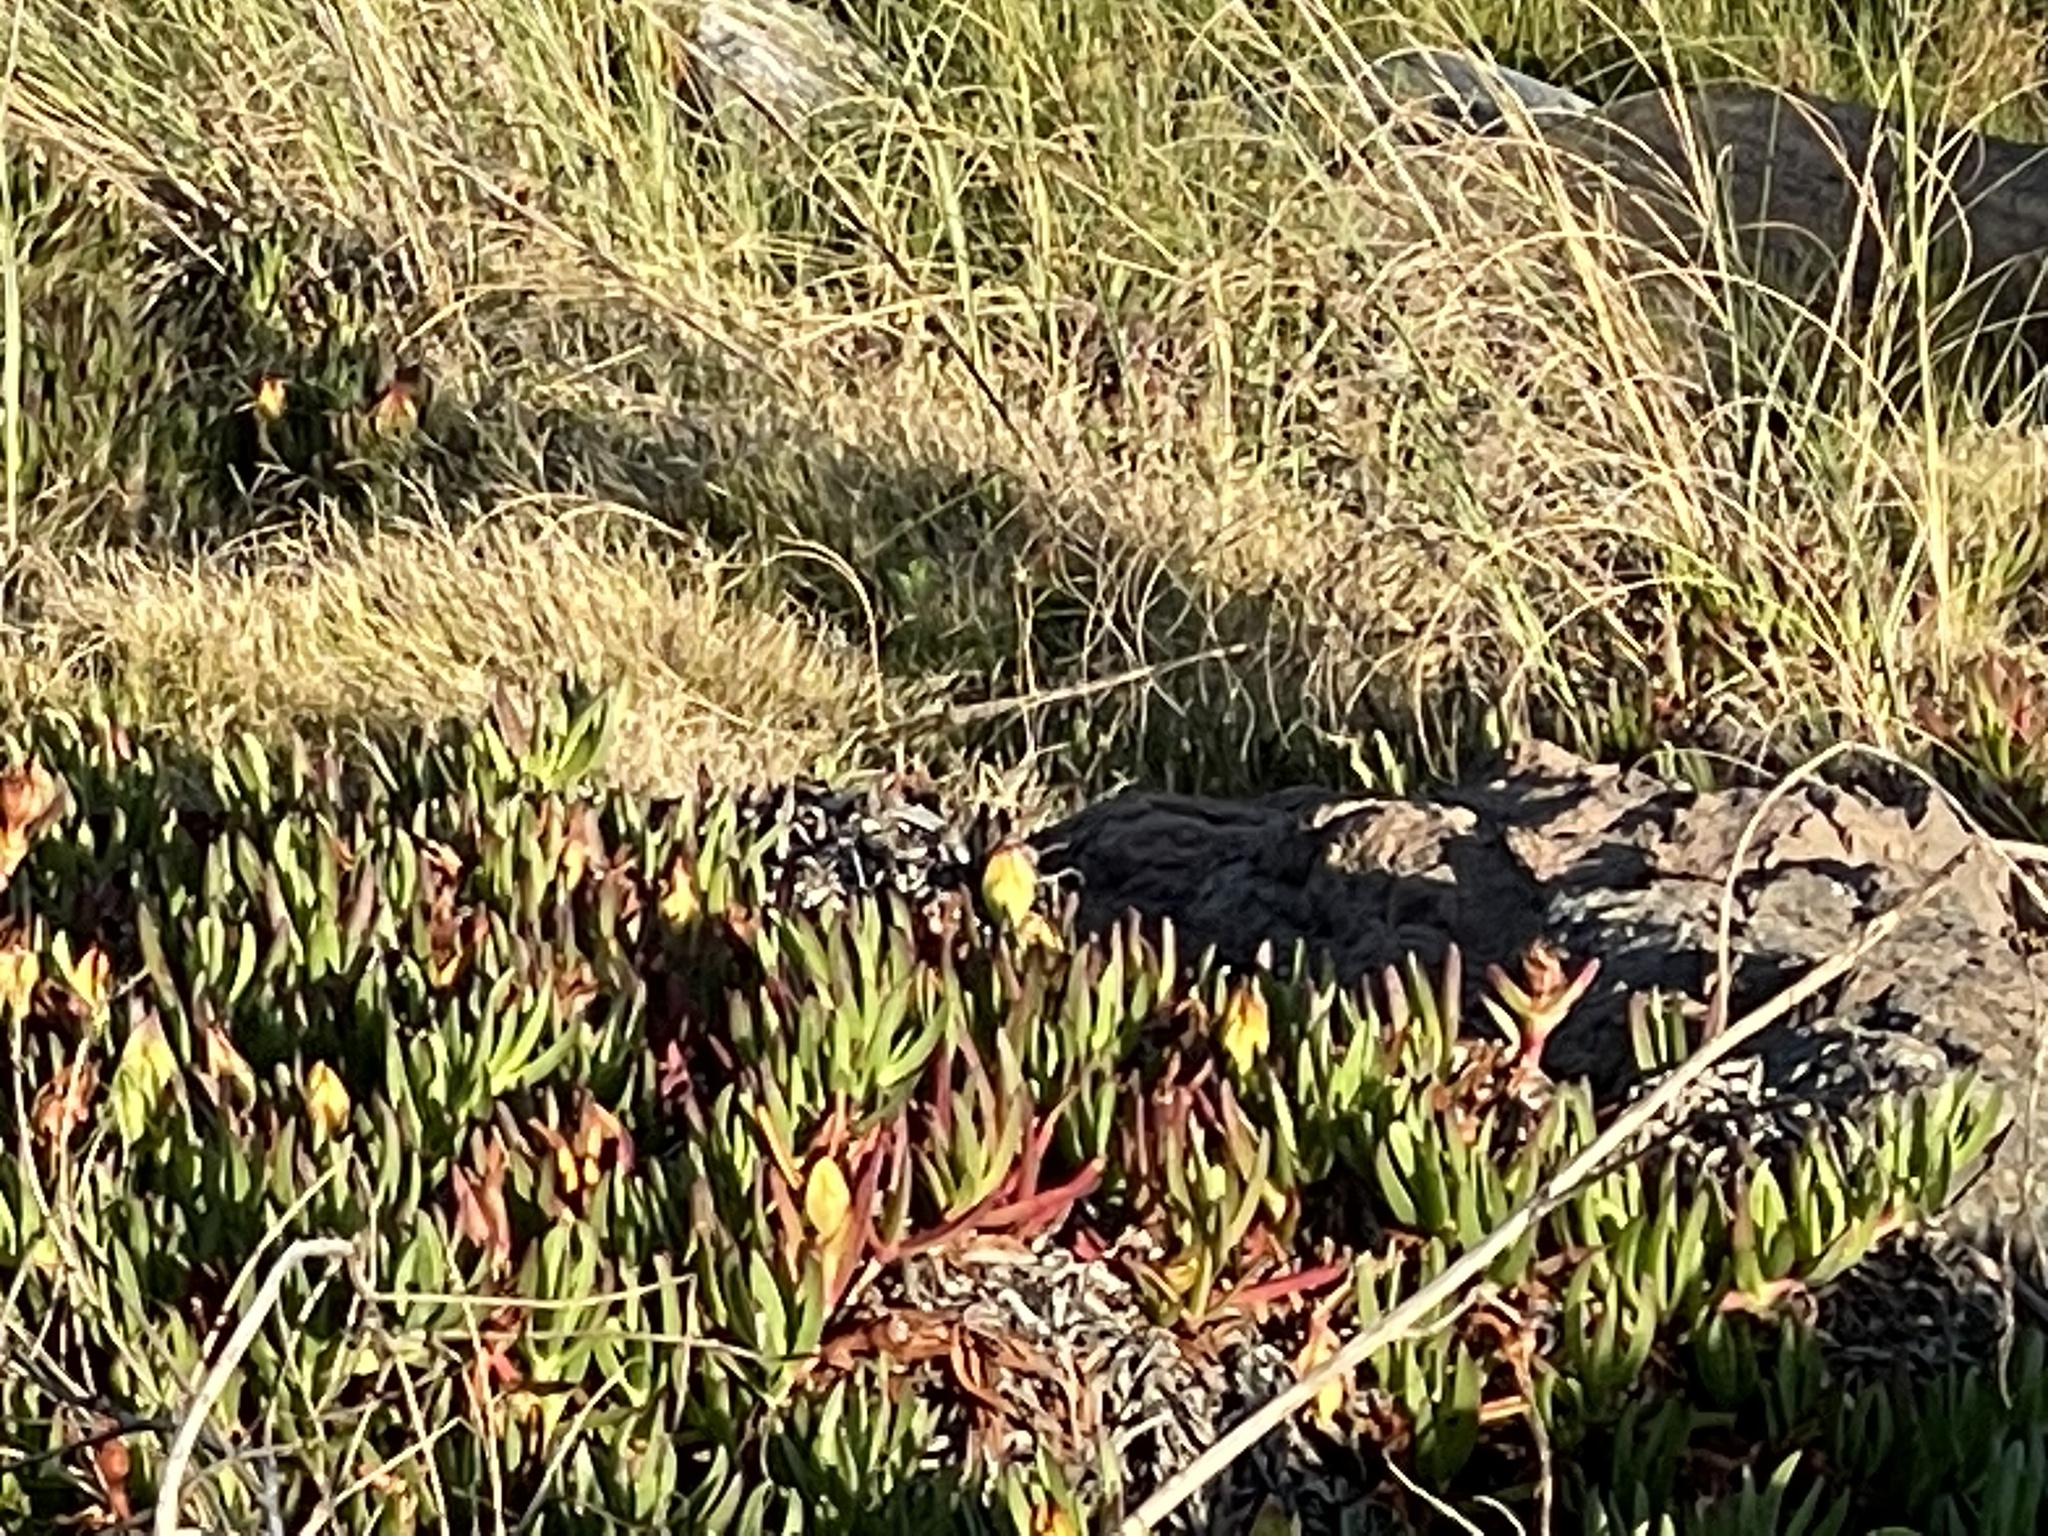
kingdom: Plantae
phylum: Tracheophyta
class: Magnoliopsida
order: Caryophyllales
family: Aizoaceae
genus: Carpobrotus
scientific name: Carpobrotus edulis
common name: Hottentot-fig
